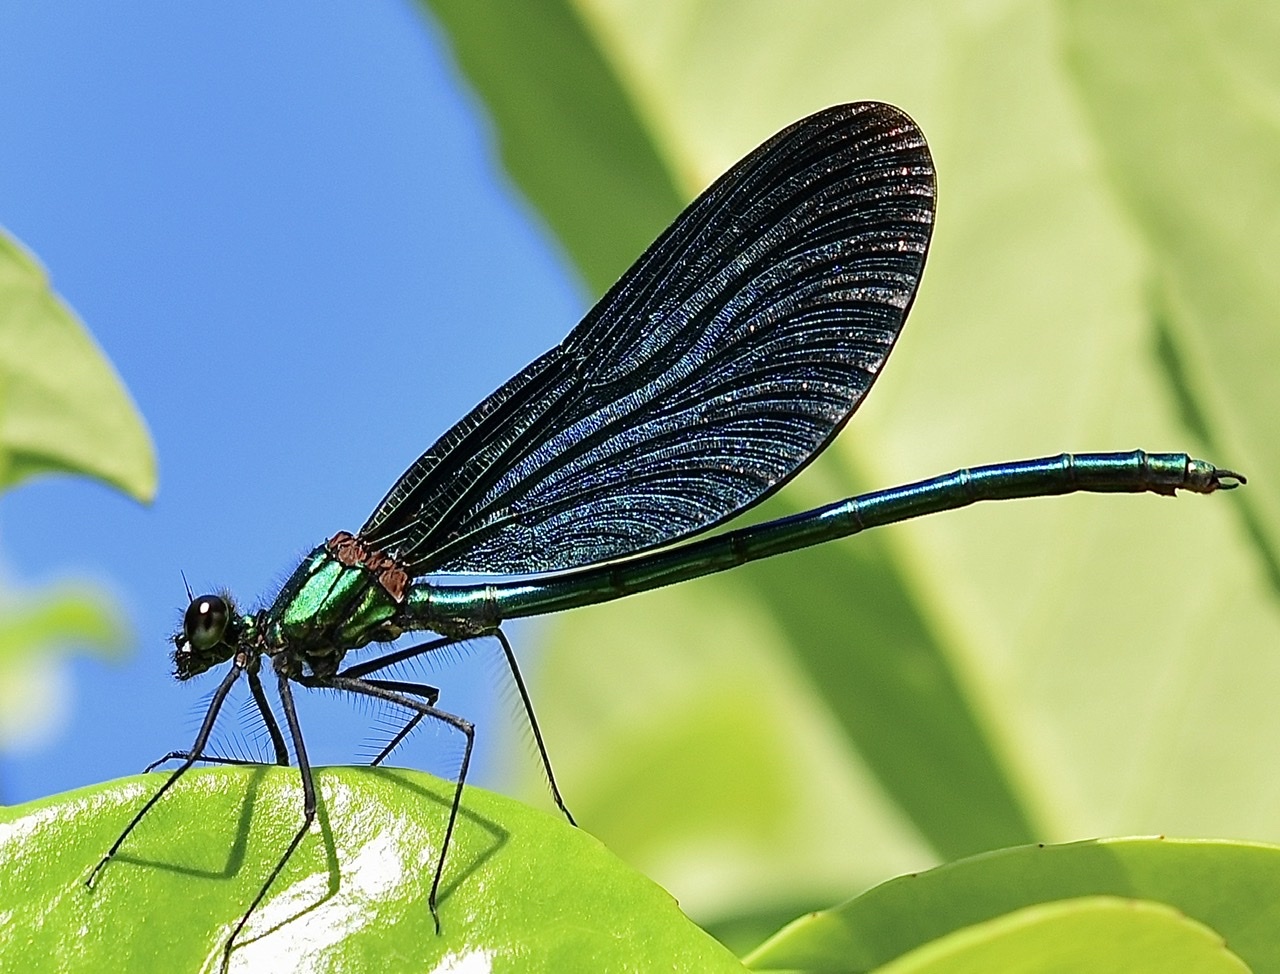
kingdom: Animalia
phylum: Arthropoda
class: Insecta
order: Odonata
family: Calopterygidae
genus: Calopteryx
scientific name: Calopteryx virgo
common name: Beautiful demoiselle
